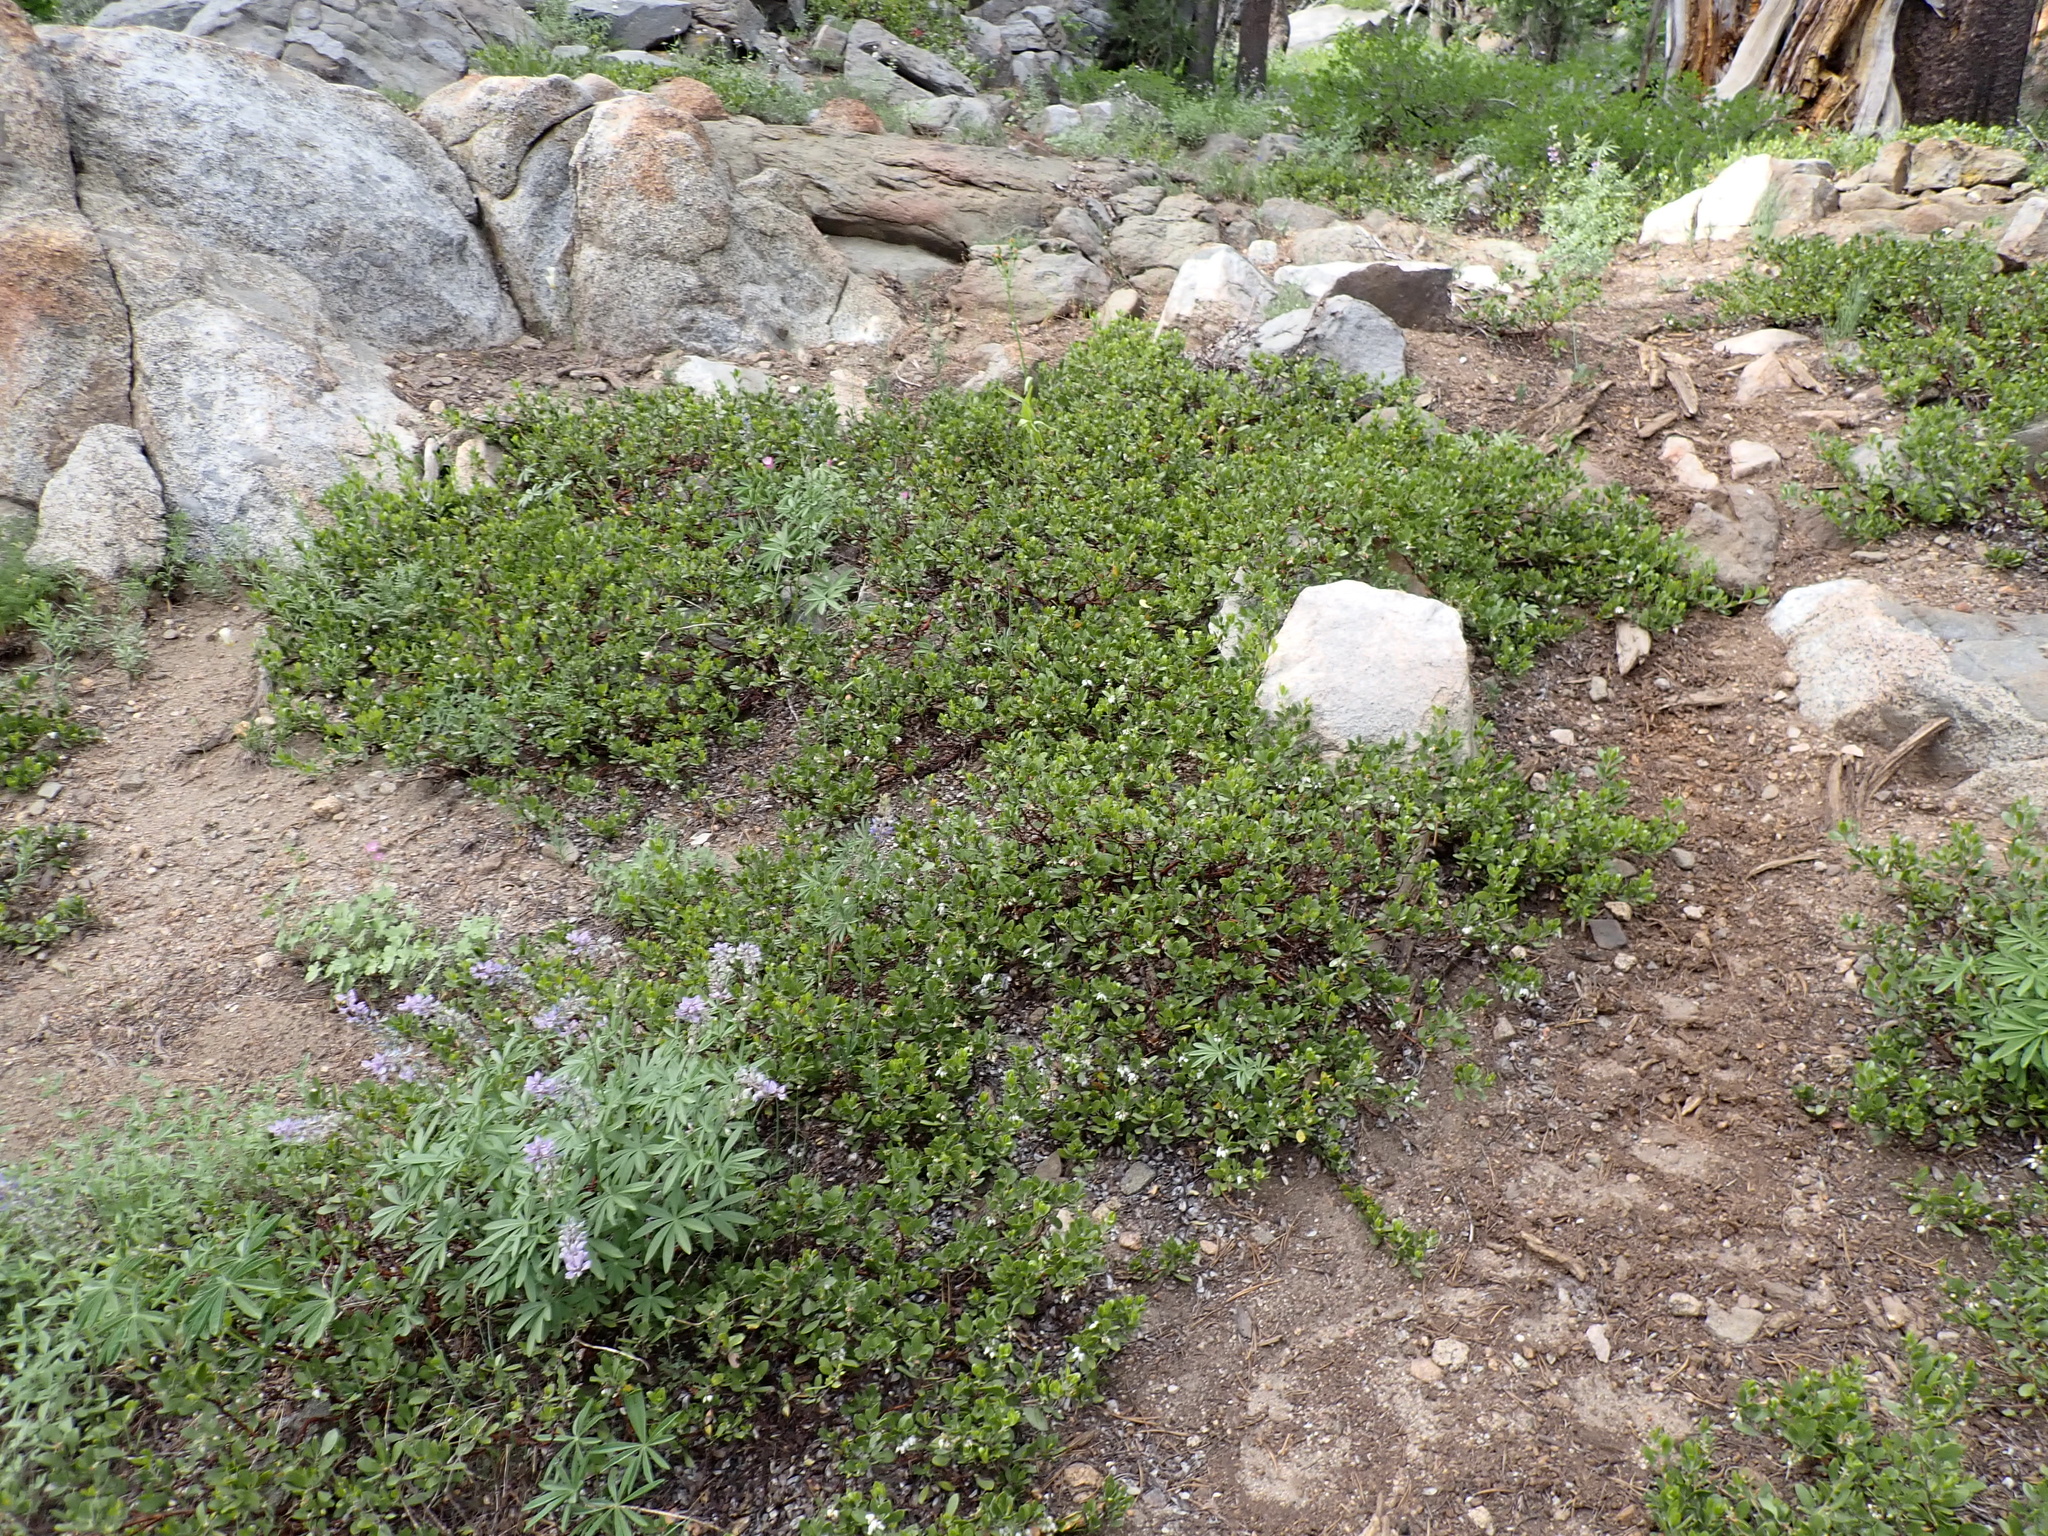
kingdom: Plantae
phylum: Tracheophyta
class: Magnoliopsida
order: Ericales
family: Ericaceae
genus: Arctostaphylos
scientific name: Arctostaphylos nevadensis
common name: Pinemat manzanita
